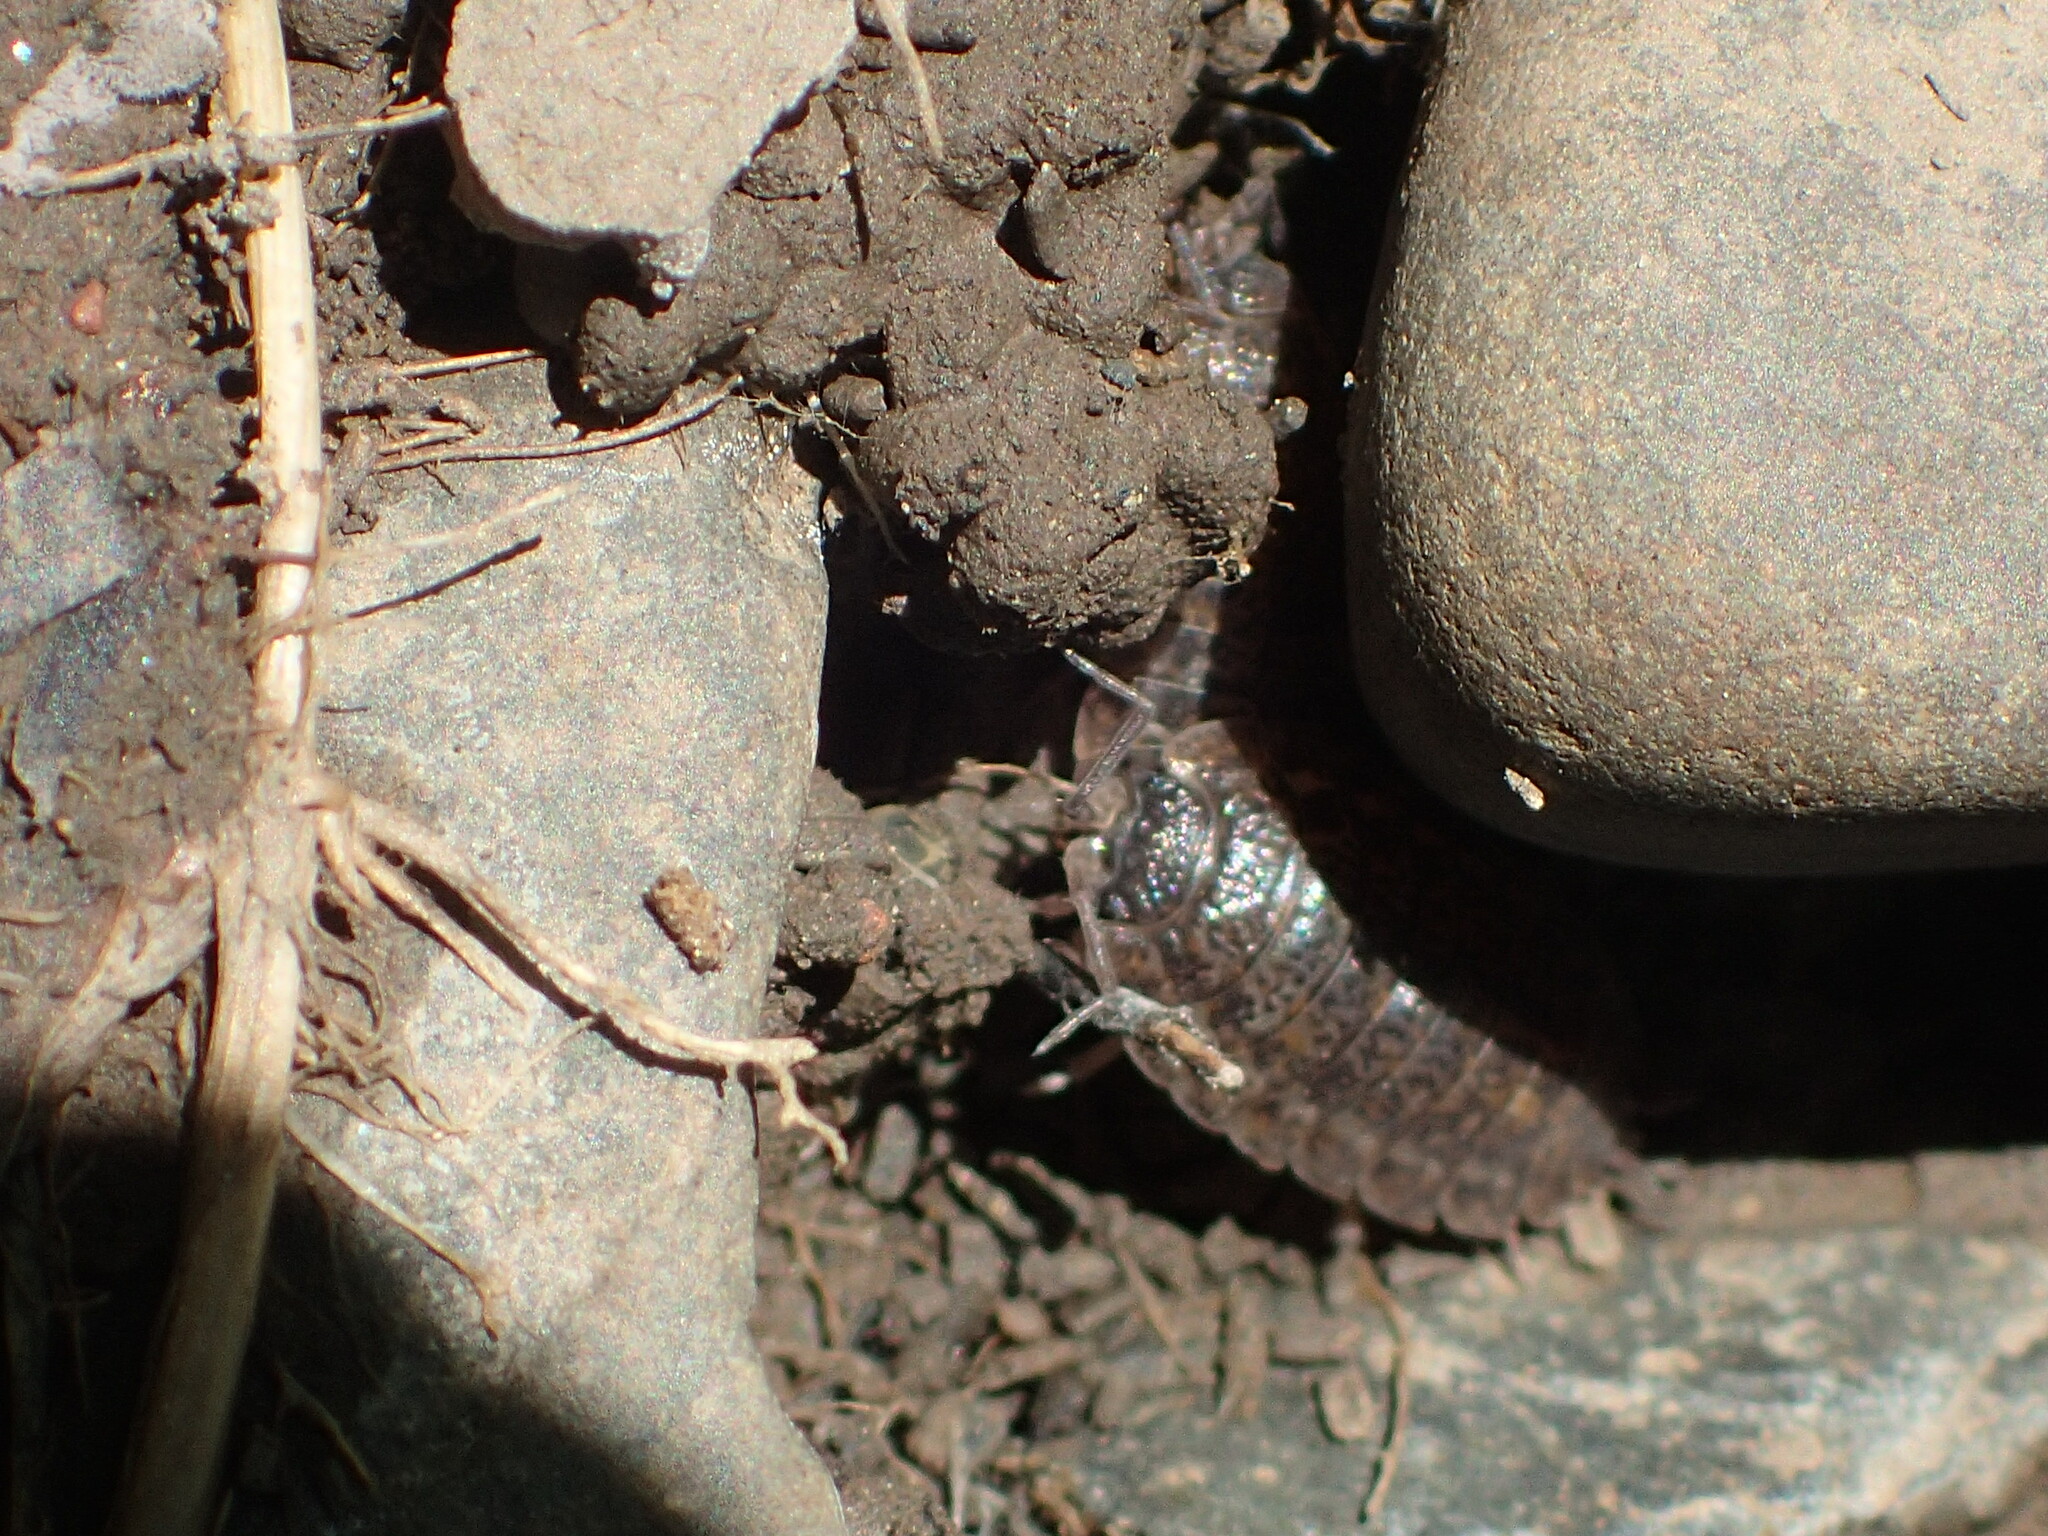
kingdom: Animalia
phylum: Arthropoda
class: Malacostraca
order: Isopoda
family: Trachelipodidae
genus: Trachelipus
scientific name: Trachelipus rathkii
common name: Isopod
